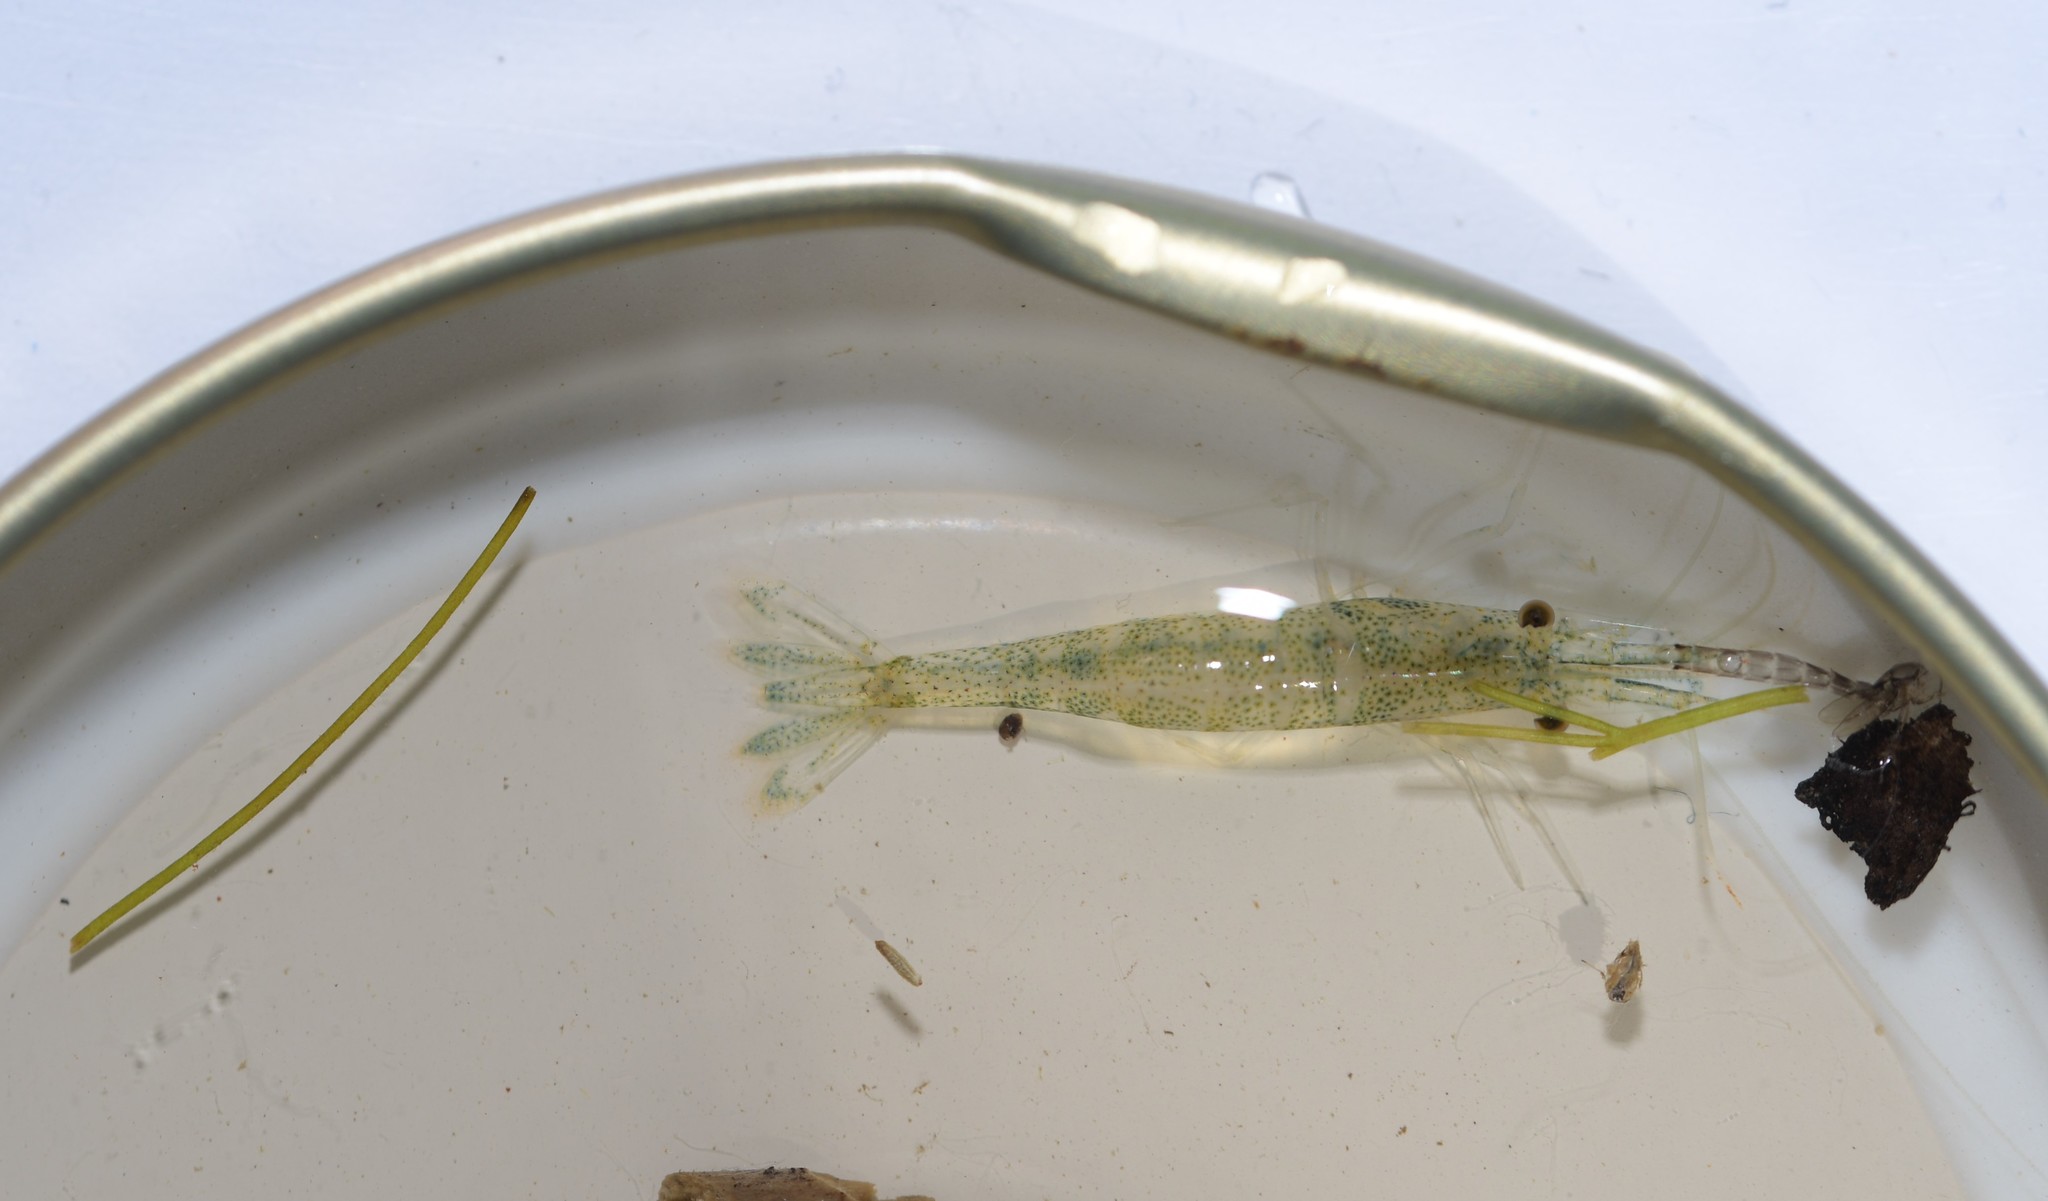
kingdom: Animalia
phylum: Arthropoda
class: Malacostraca
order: Decapoda
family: Atyidae
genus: Atyaephyra
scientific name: Atyaephyra desmarestii
